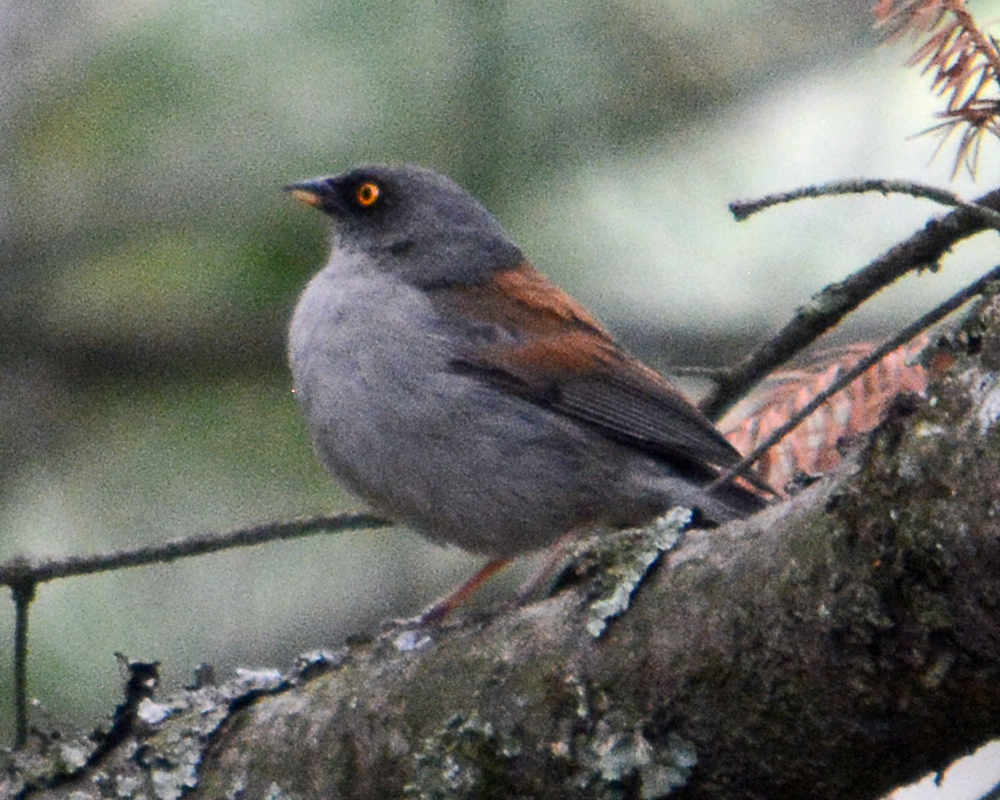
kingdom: Animalia
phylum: Chordata
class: Aves
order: Passeriformes
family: Passerellidae
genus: Junco
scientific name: Junco phaeonotus
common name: Yellow-eyed junco
